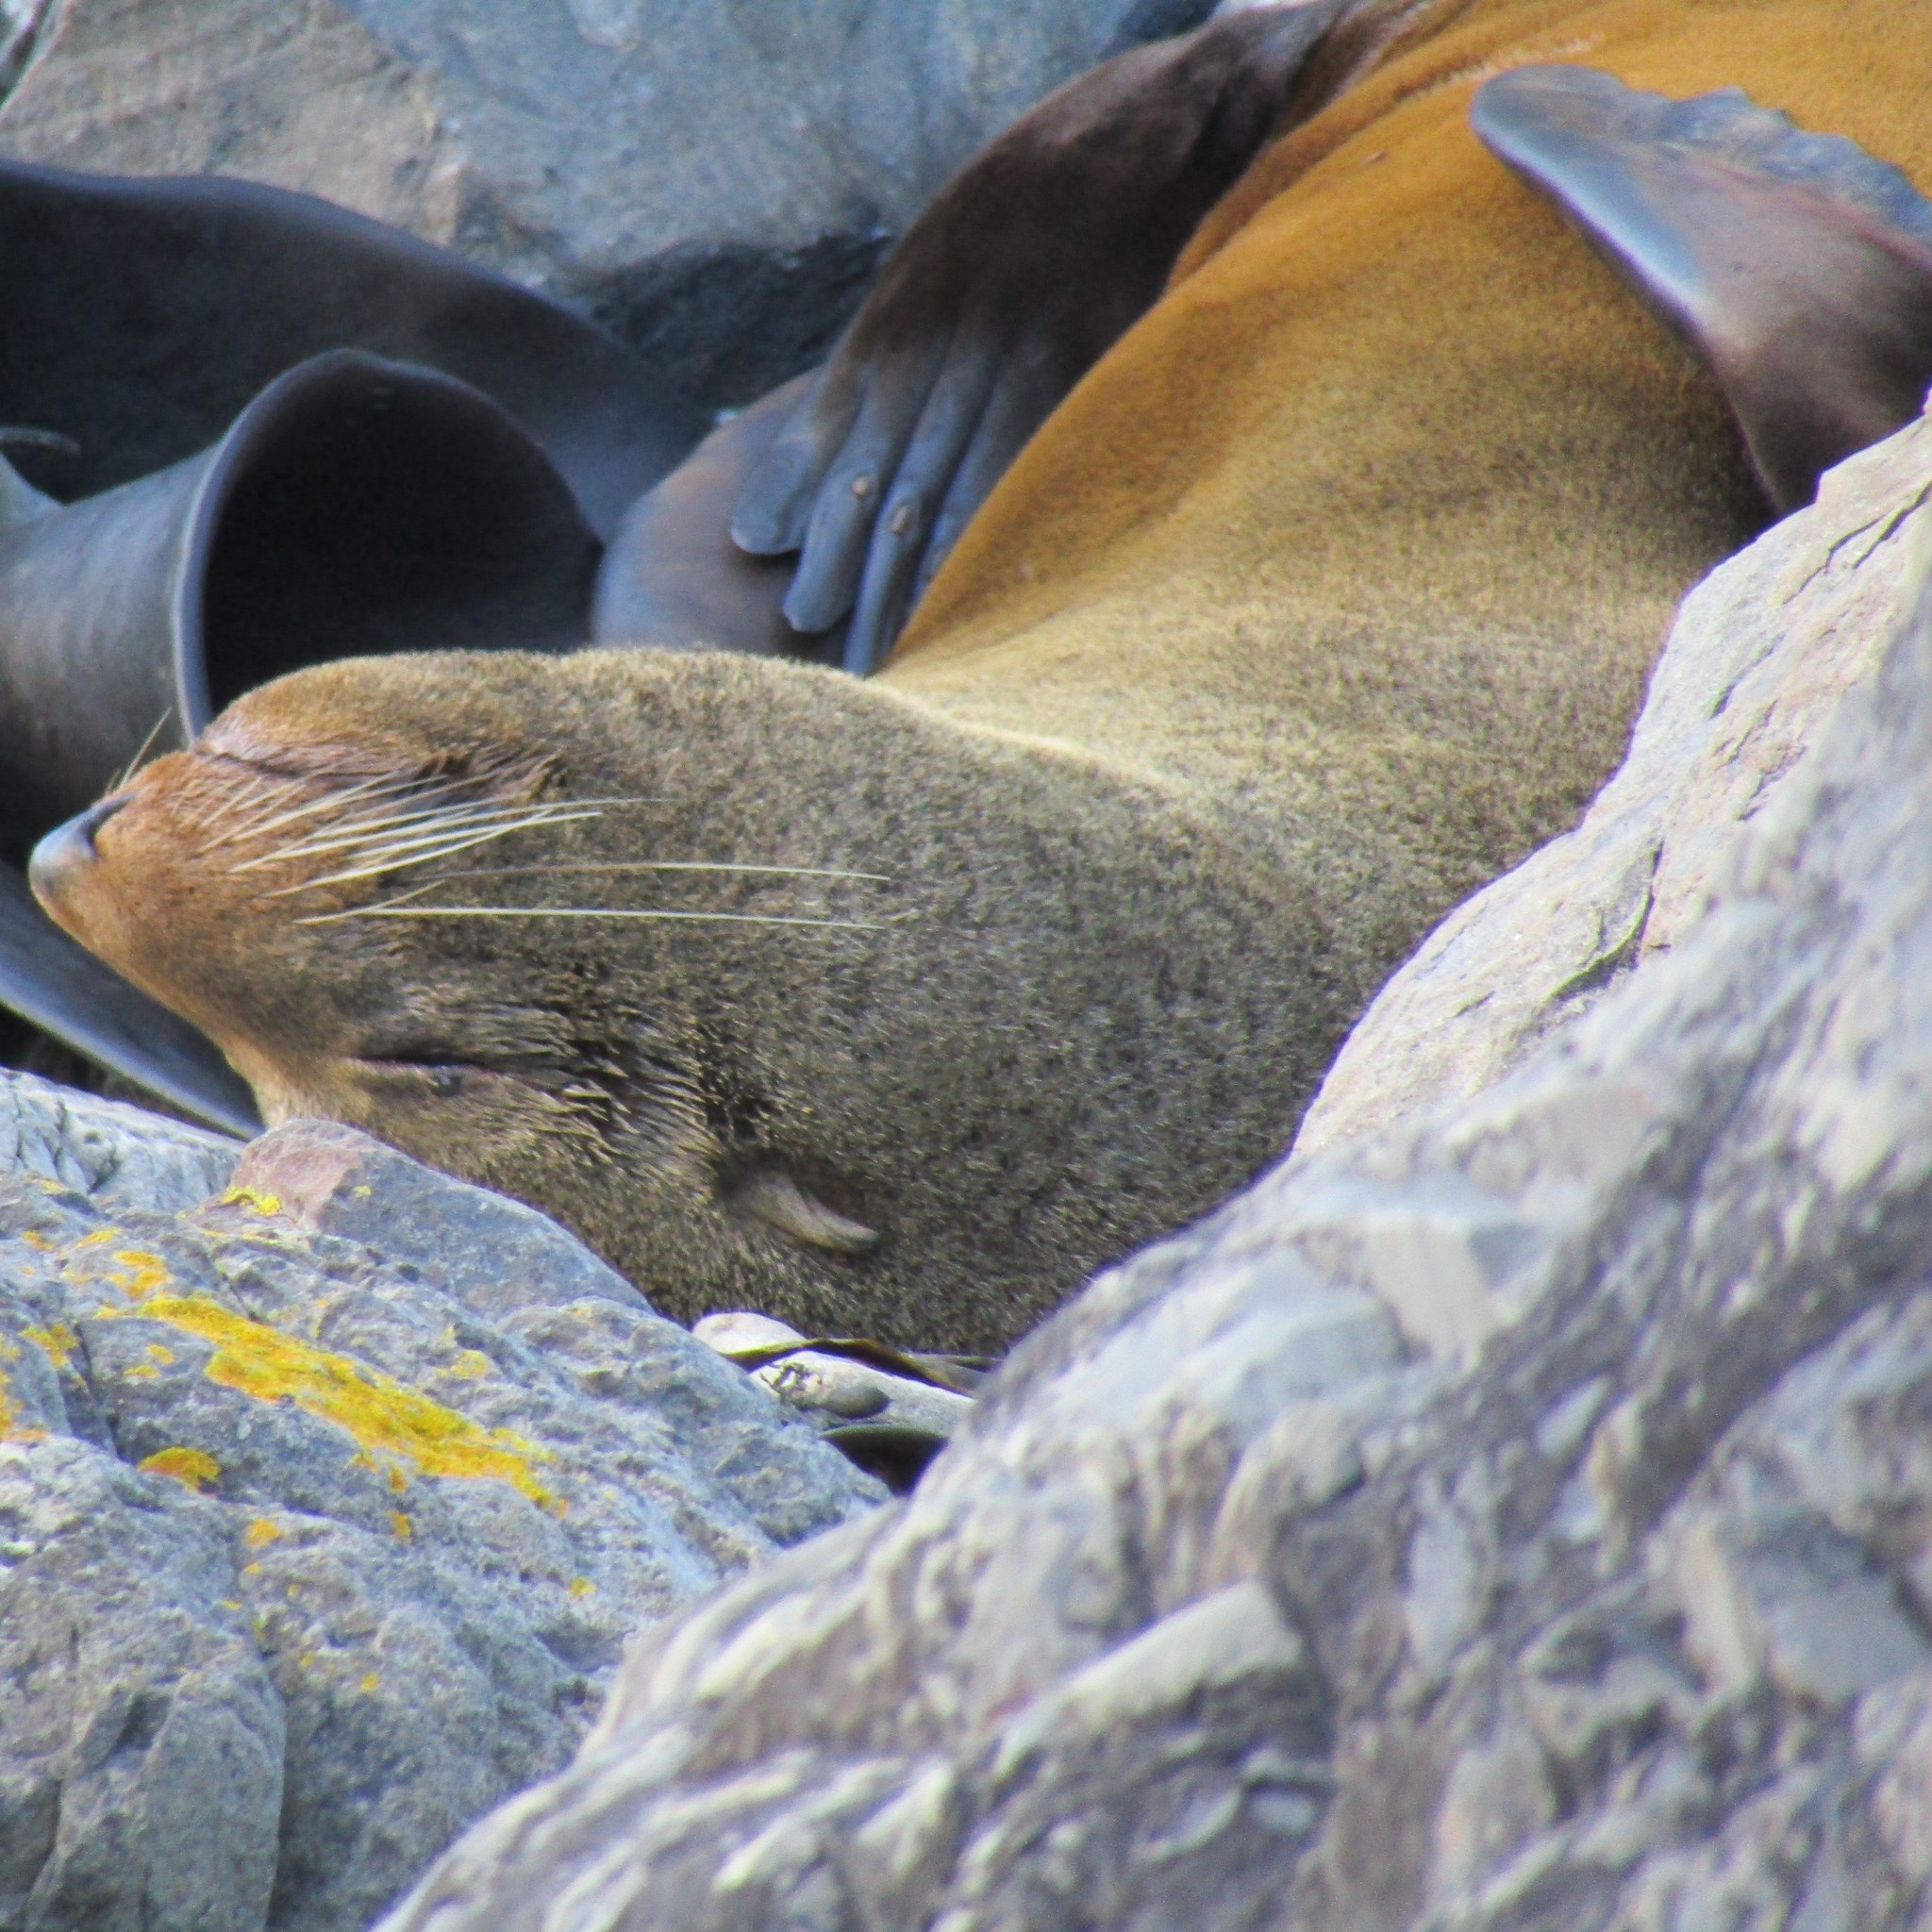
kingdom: Animalia
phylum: Chordata
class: Mammalia
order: Carnivora
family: Otariidae
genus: Arctocephalus
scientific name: Arctocephalus forsteri
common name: New zealand fur seal
